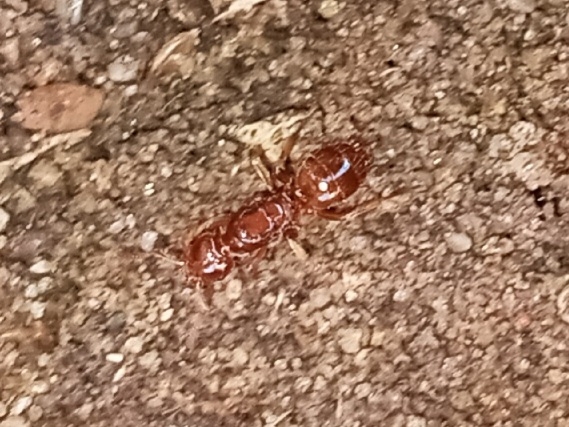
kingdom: Animalia
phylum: Arthropoda
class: Insecta
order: Hymenoptera
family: Formicidae
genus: Lasius
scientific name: Lasius claviger
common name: Common citronella ant
